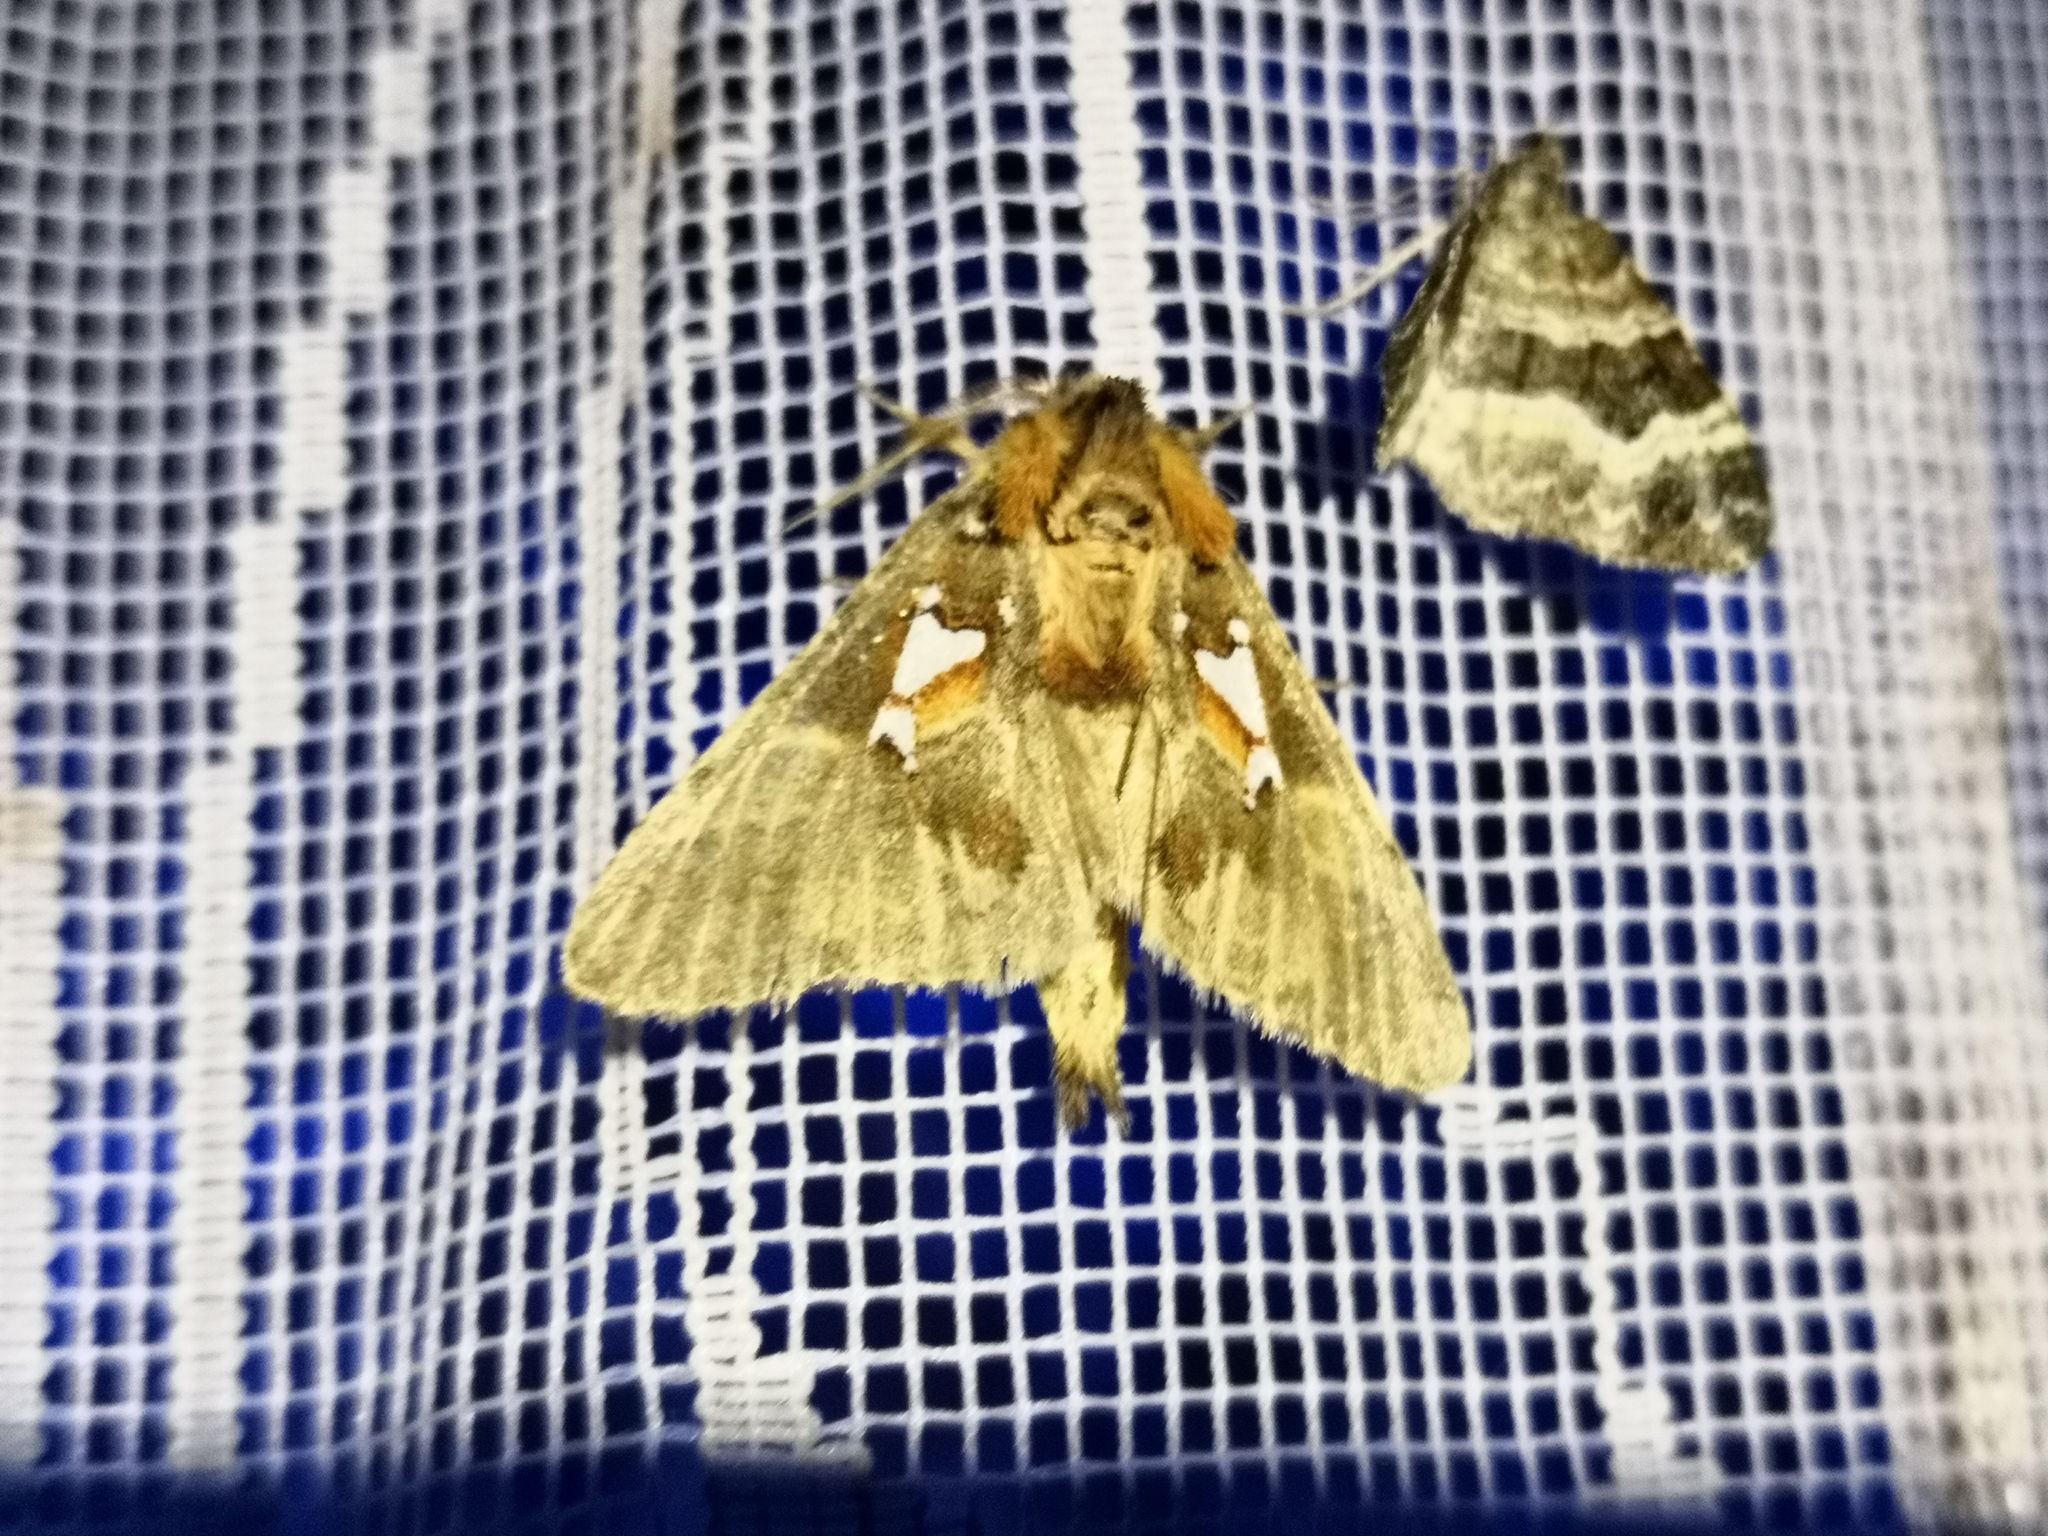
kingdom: Animalia
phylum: Arthropoda
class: Insecta
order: Lepidoptera
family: Notodontidae
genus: Spatalia
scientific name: Spatalia argentina
